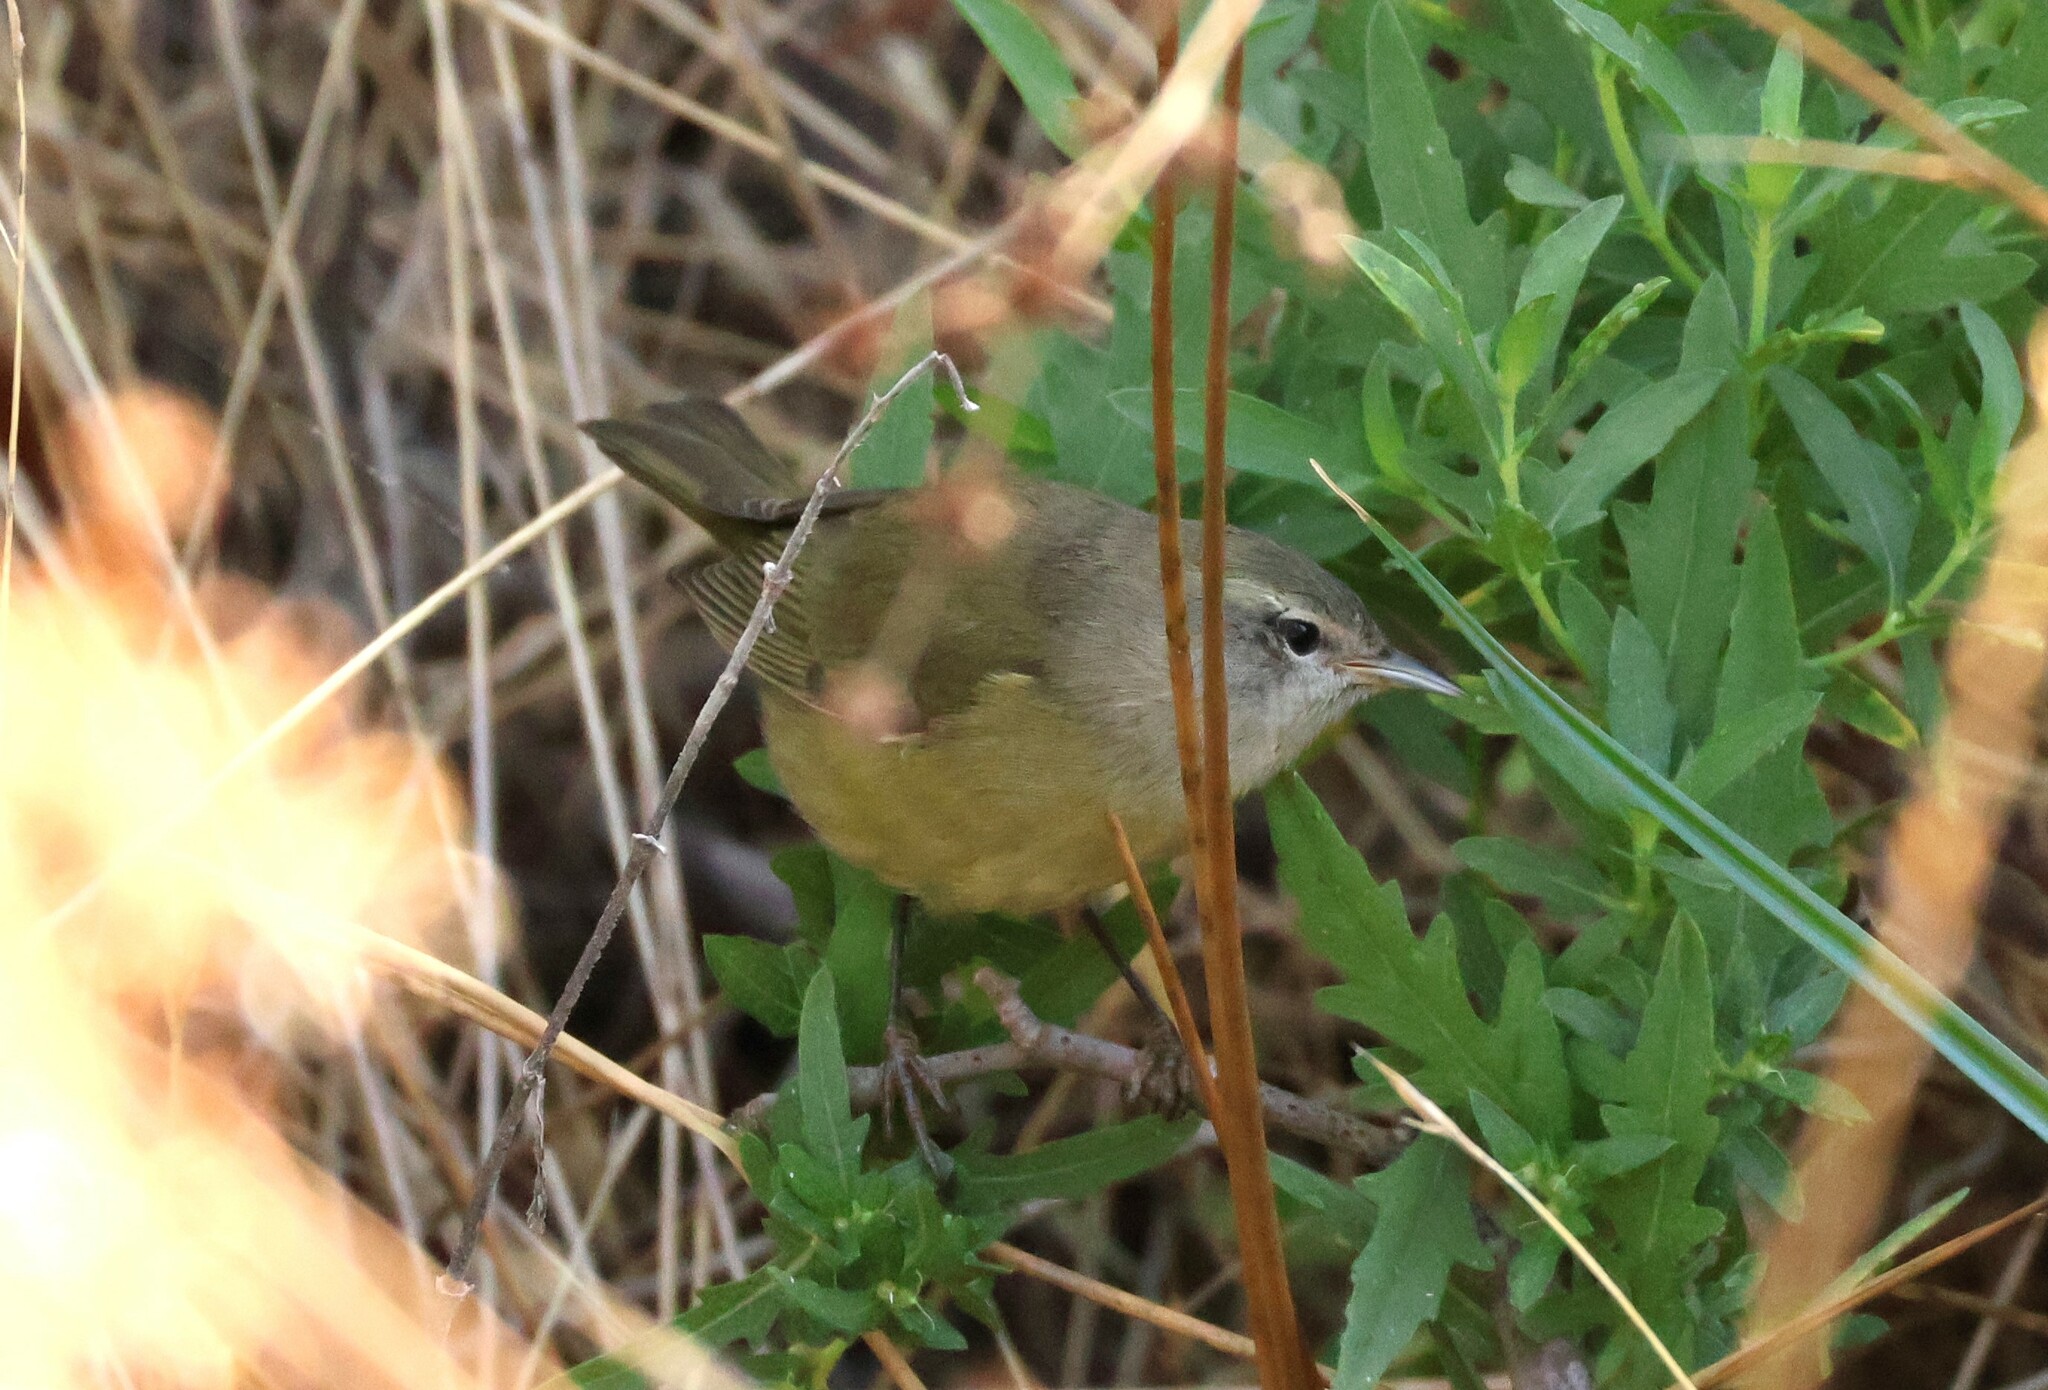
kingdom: Animalia
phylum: Chordata
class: Aves
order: Passeriformes
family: Parulidae
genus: Leiothlypis
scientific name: Leiothlypis celata
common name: Orange-crowned warbler
